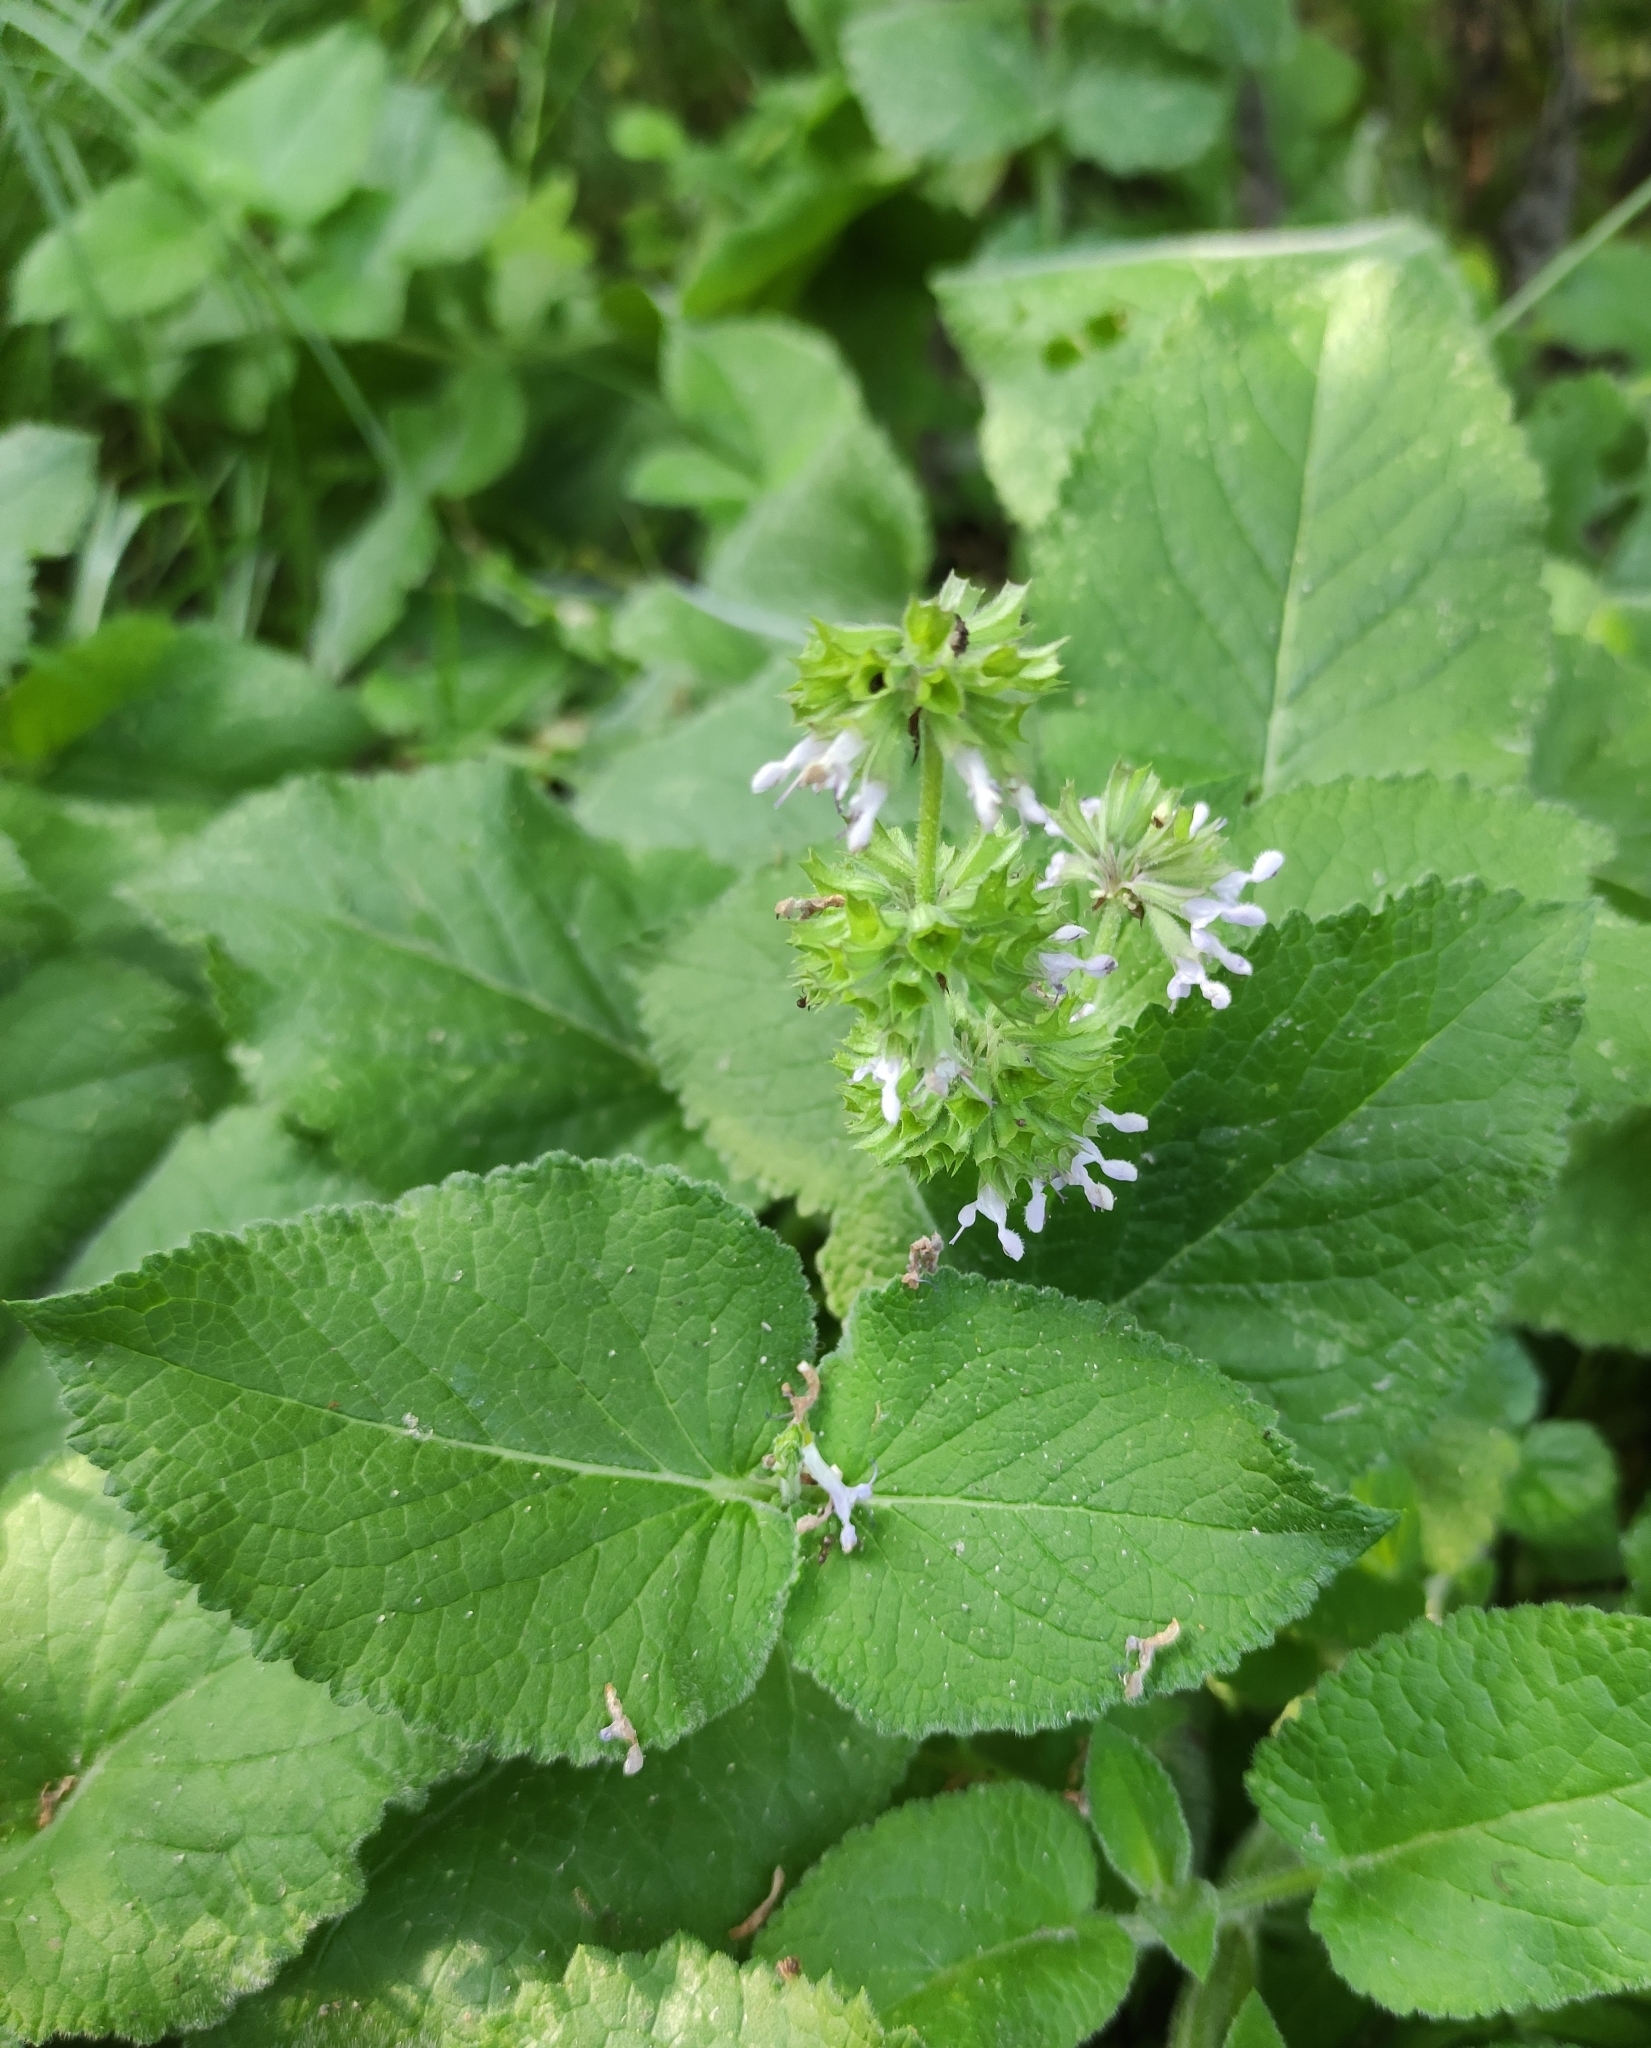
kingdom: Plantae
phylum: Tracheophyta
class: Magnoliopsida
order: Lamiales
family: Lamiaceae
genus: Salvia
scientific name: Salvia verticillata
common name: Whorled clary
